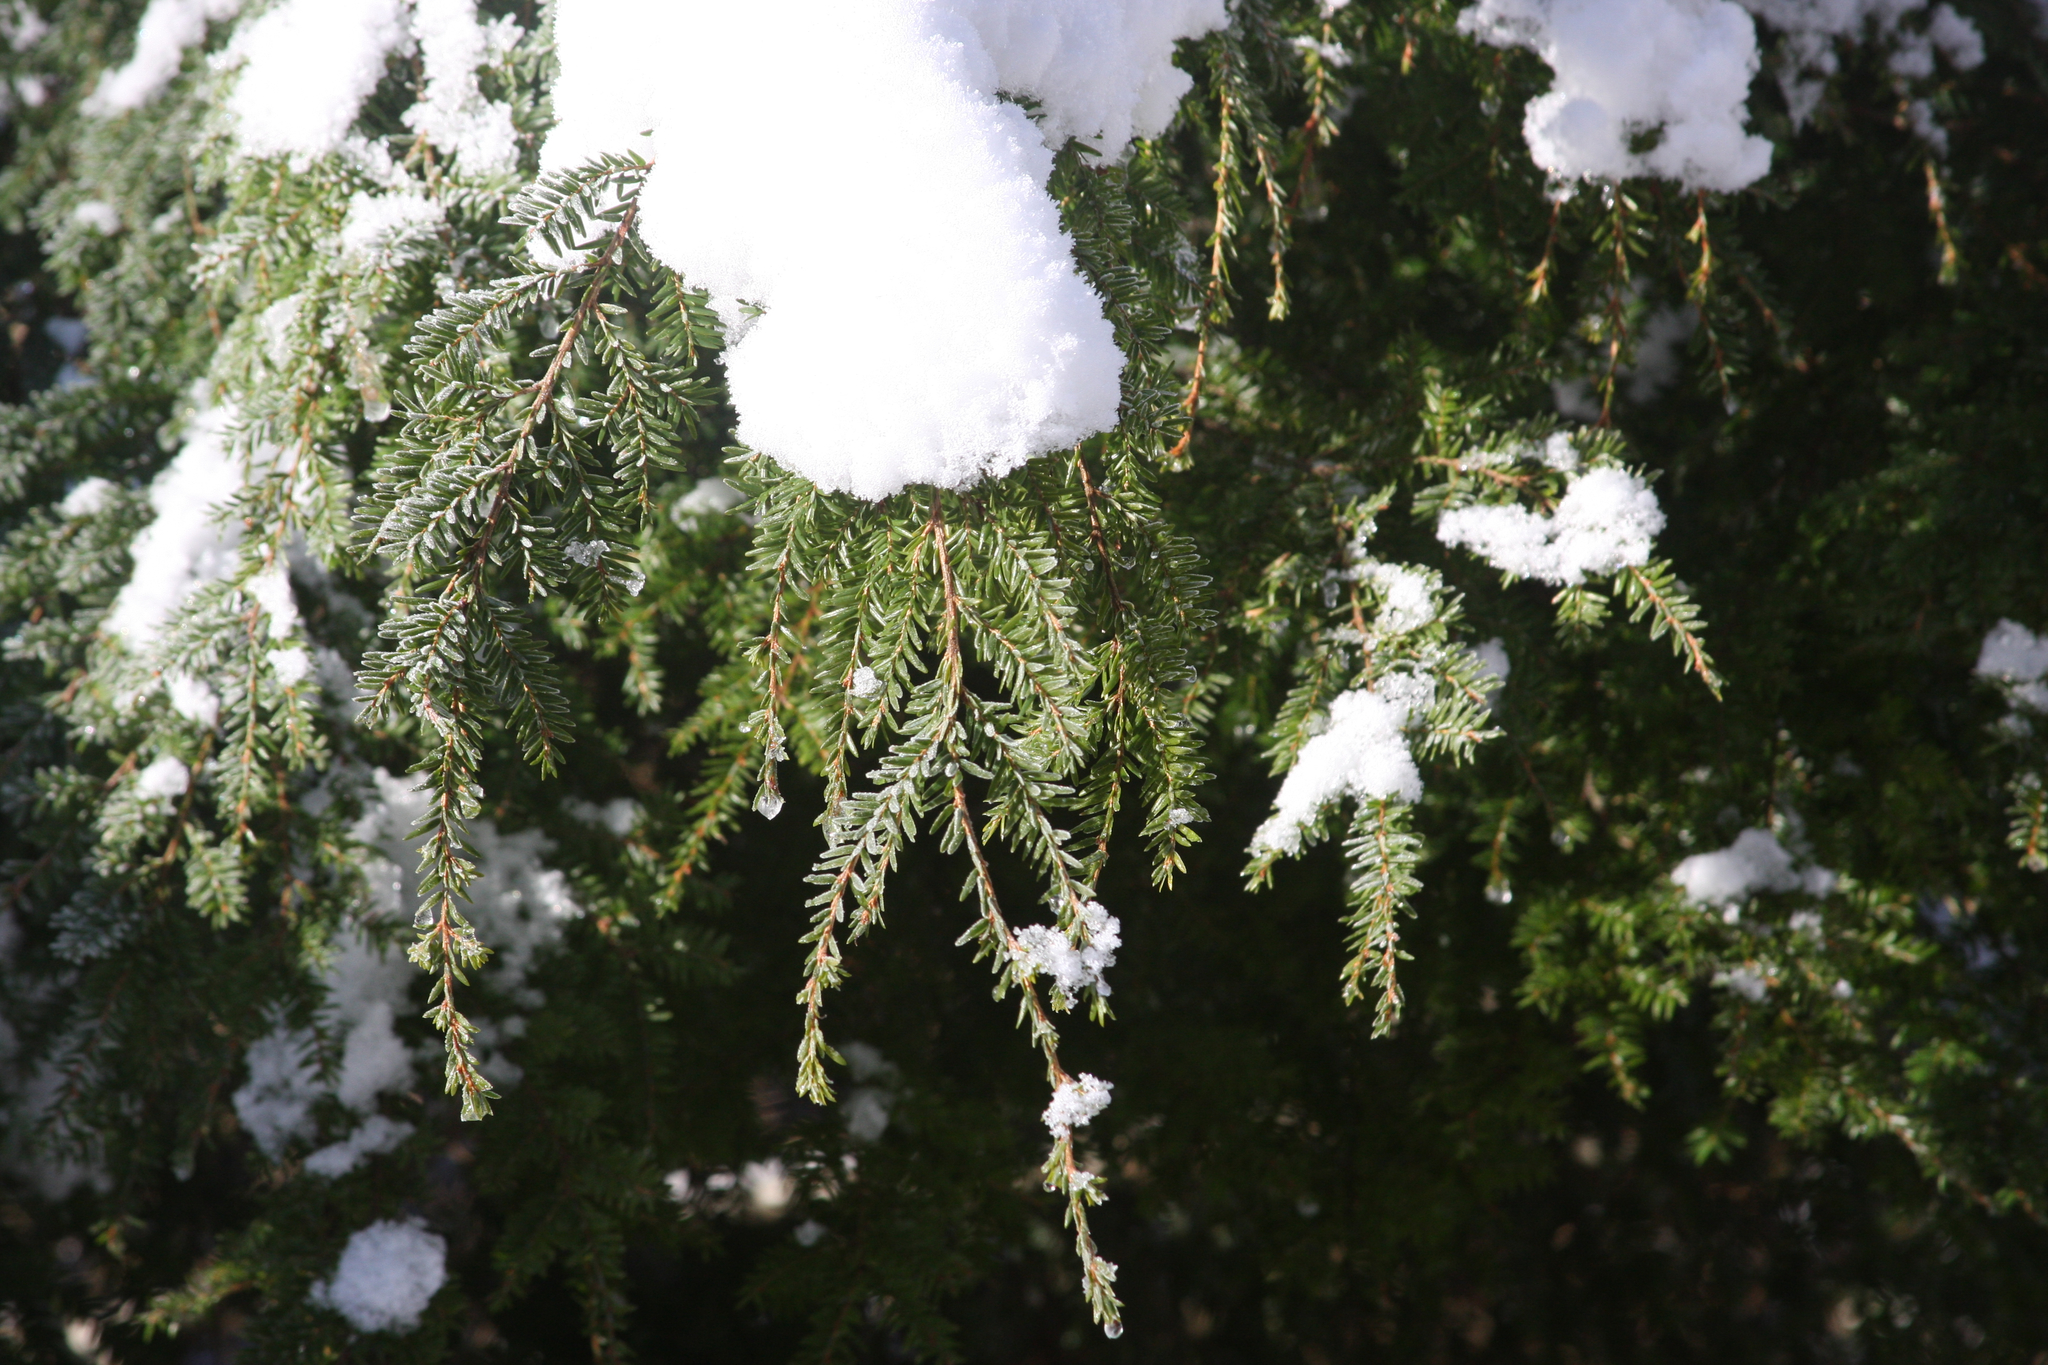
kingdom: Plantae
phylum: Tracheophyta
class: Pinopsida
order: Pinales
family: Pinaceae
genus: Tsuga
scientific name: Tsuga canadensis
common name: Eastern hemlock
